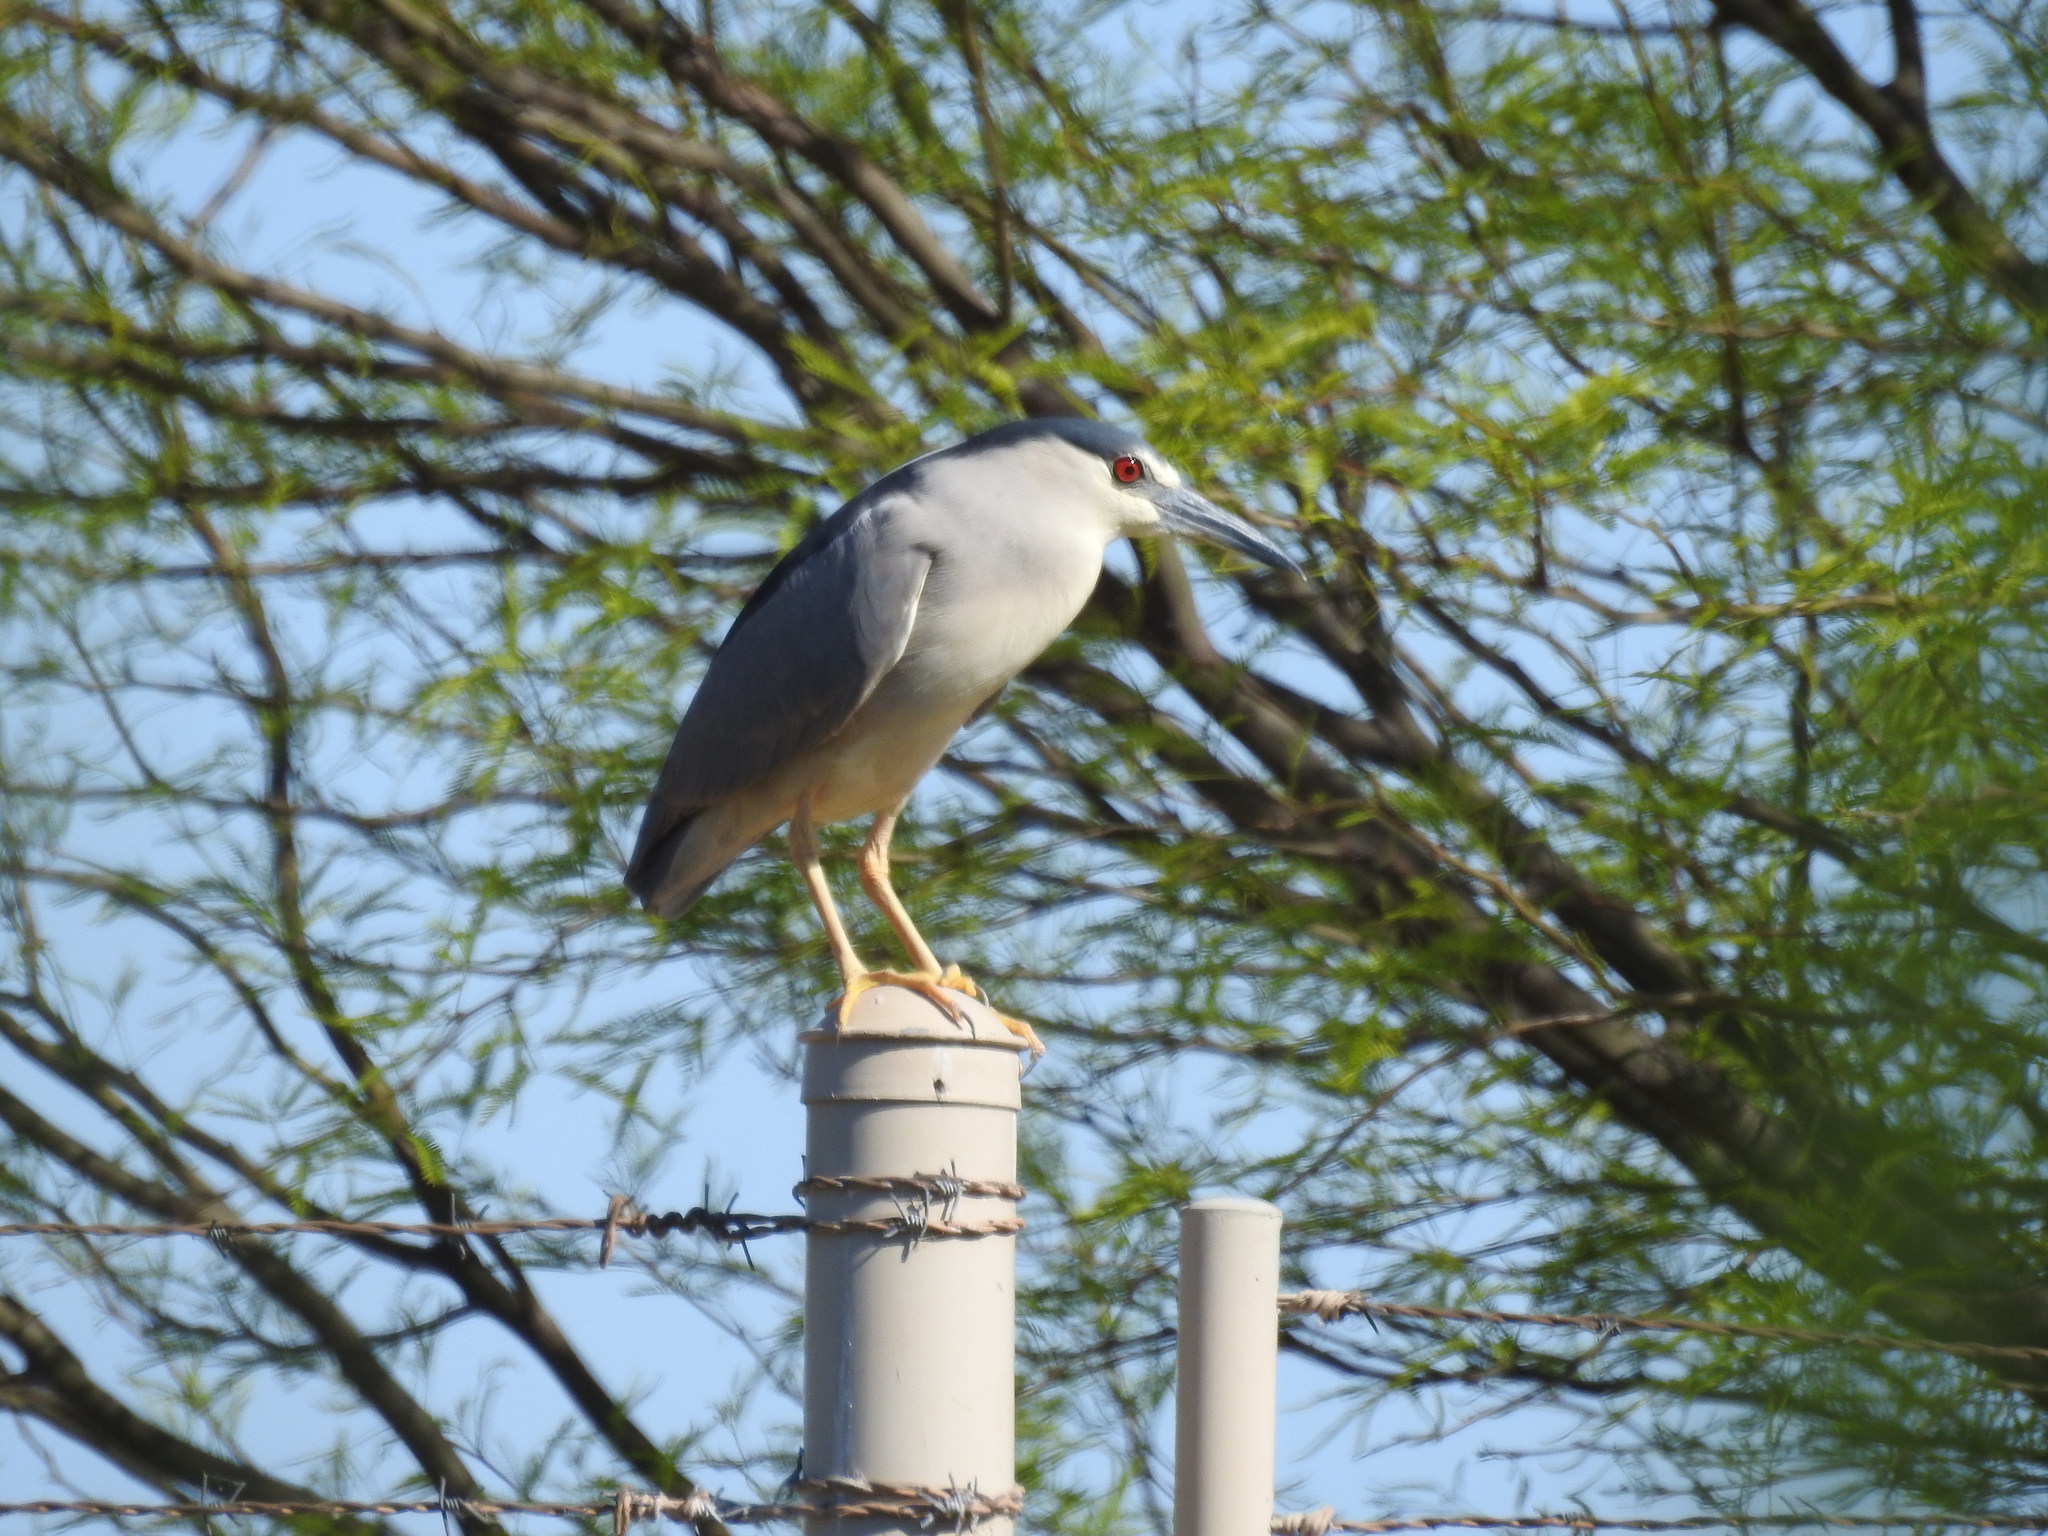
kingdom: Animalia
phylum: Chordata
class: Aves
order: Pelecaniformes
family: Ardeidae
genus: Nycticorax
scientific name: Nycticorax nycticorax
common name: Black-crowned night heron
